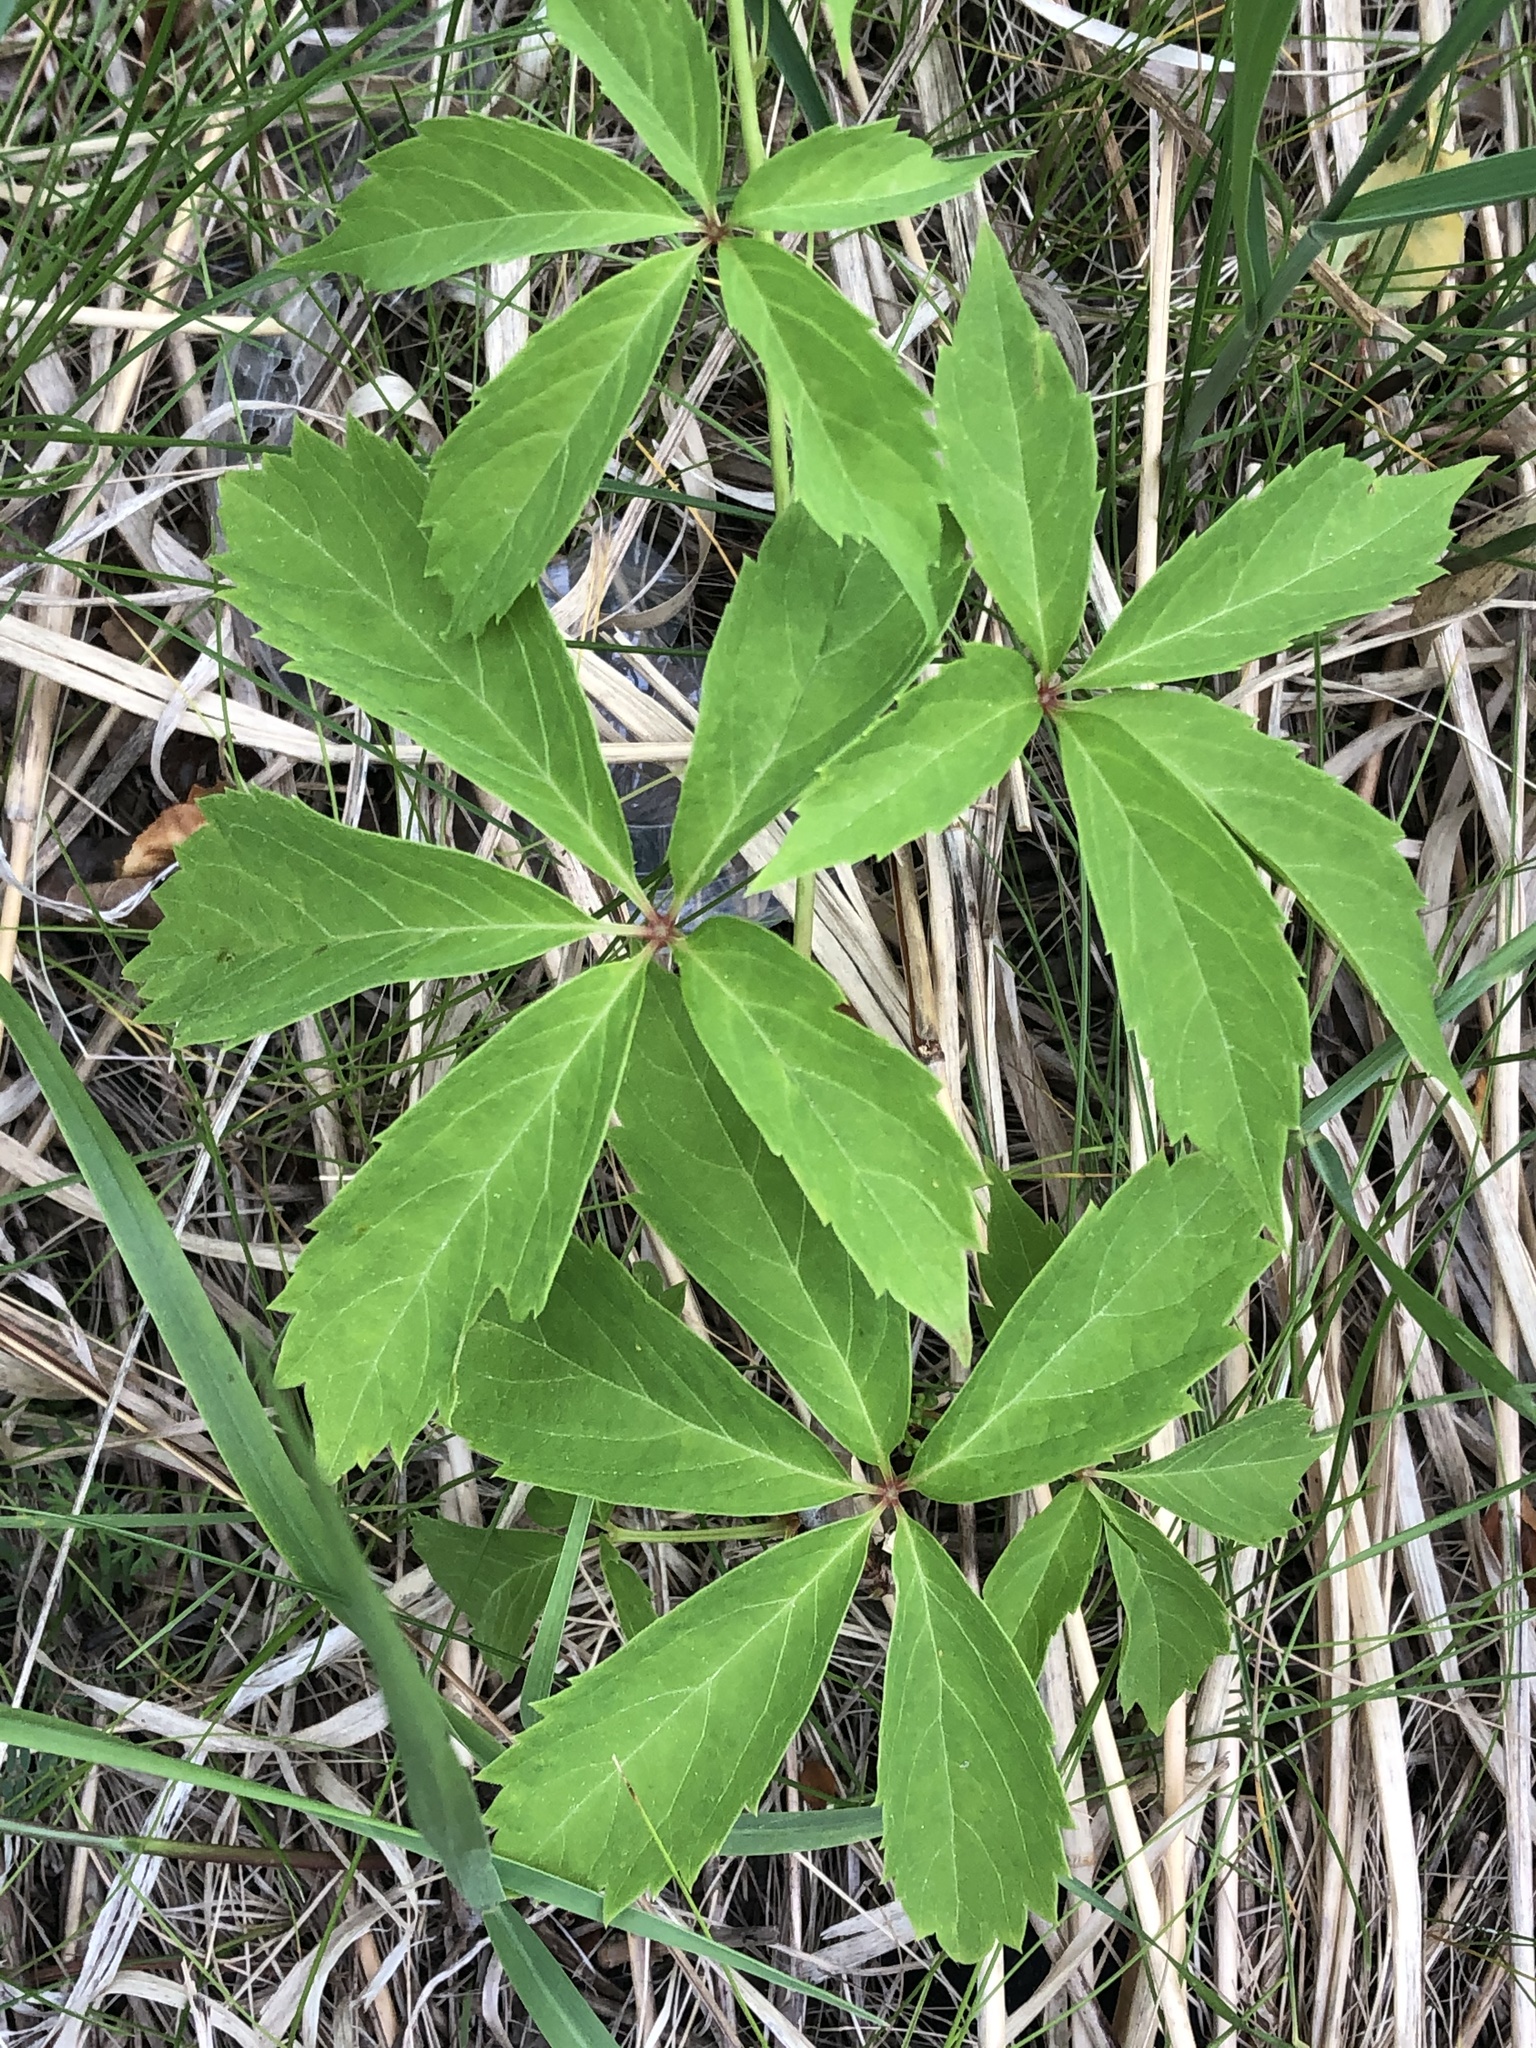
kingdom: Plantae
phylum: Tracheophyta
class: Magnoliopsida
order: Vitales
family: Vitaceae
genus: Parthenocissus
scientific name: Parthenocissus quinquefolia
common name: Virginia-creeper
